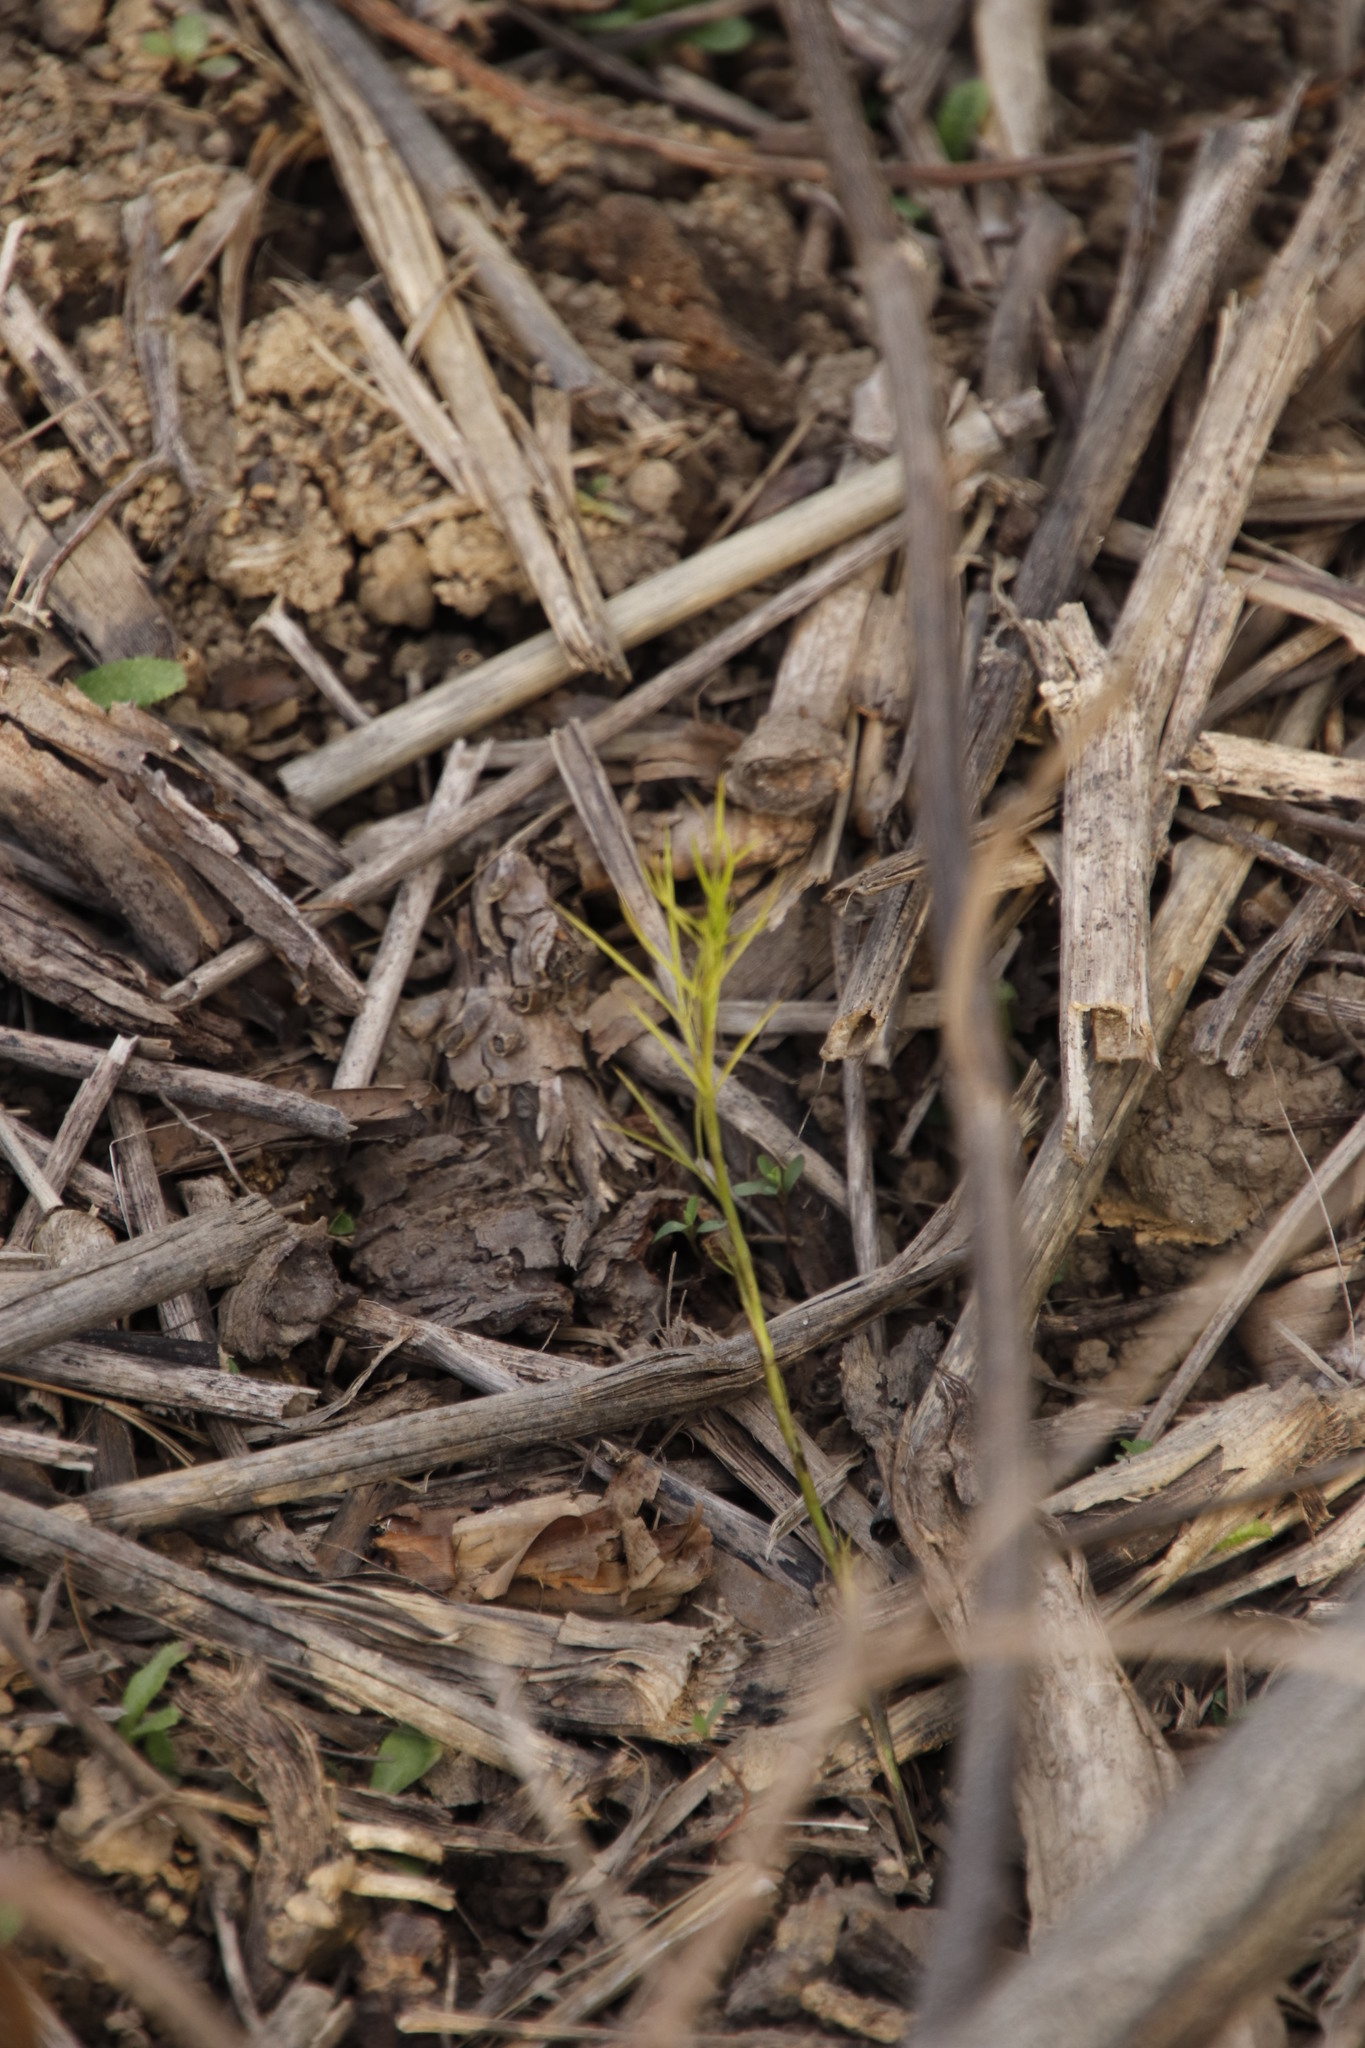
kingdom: Plantae
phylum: Tracheophyta
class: Magnoliopsida
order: Fabales
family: Fabaceae
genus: Psoralea
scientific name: Psoralea fascicularis
